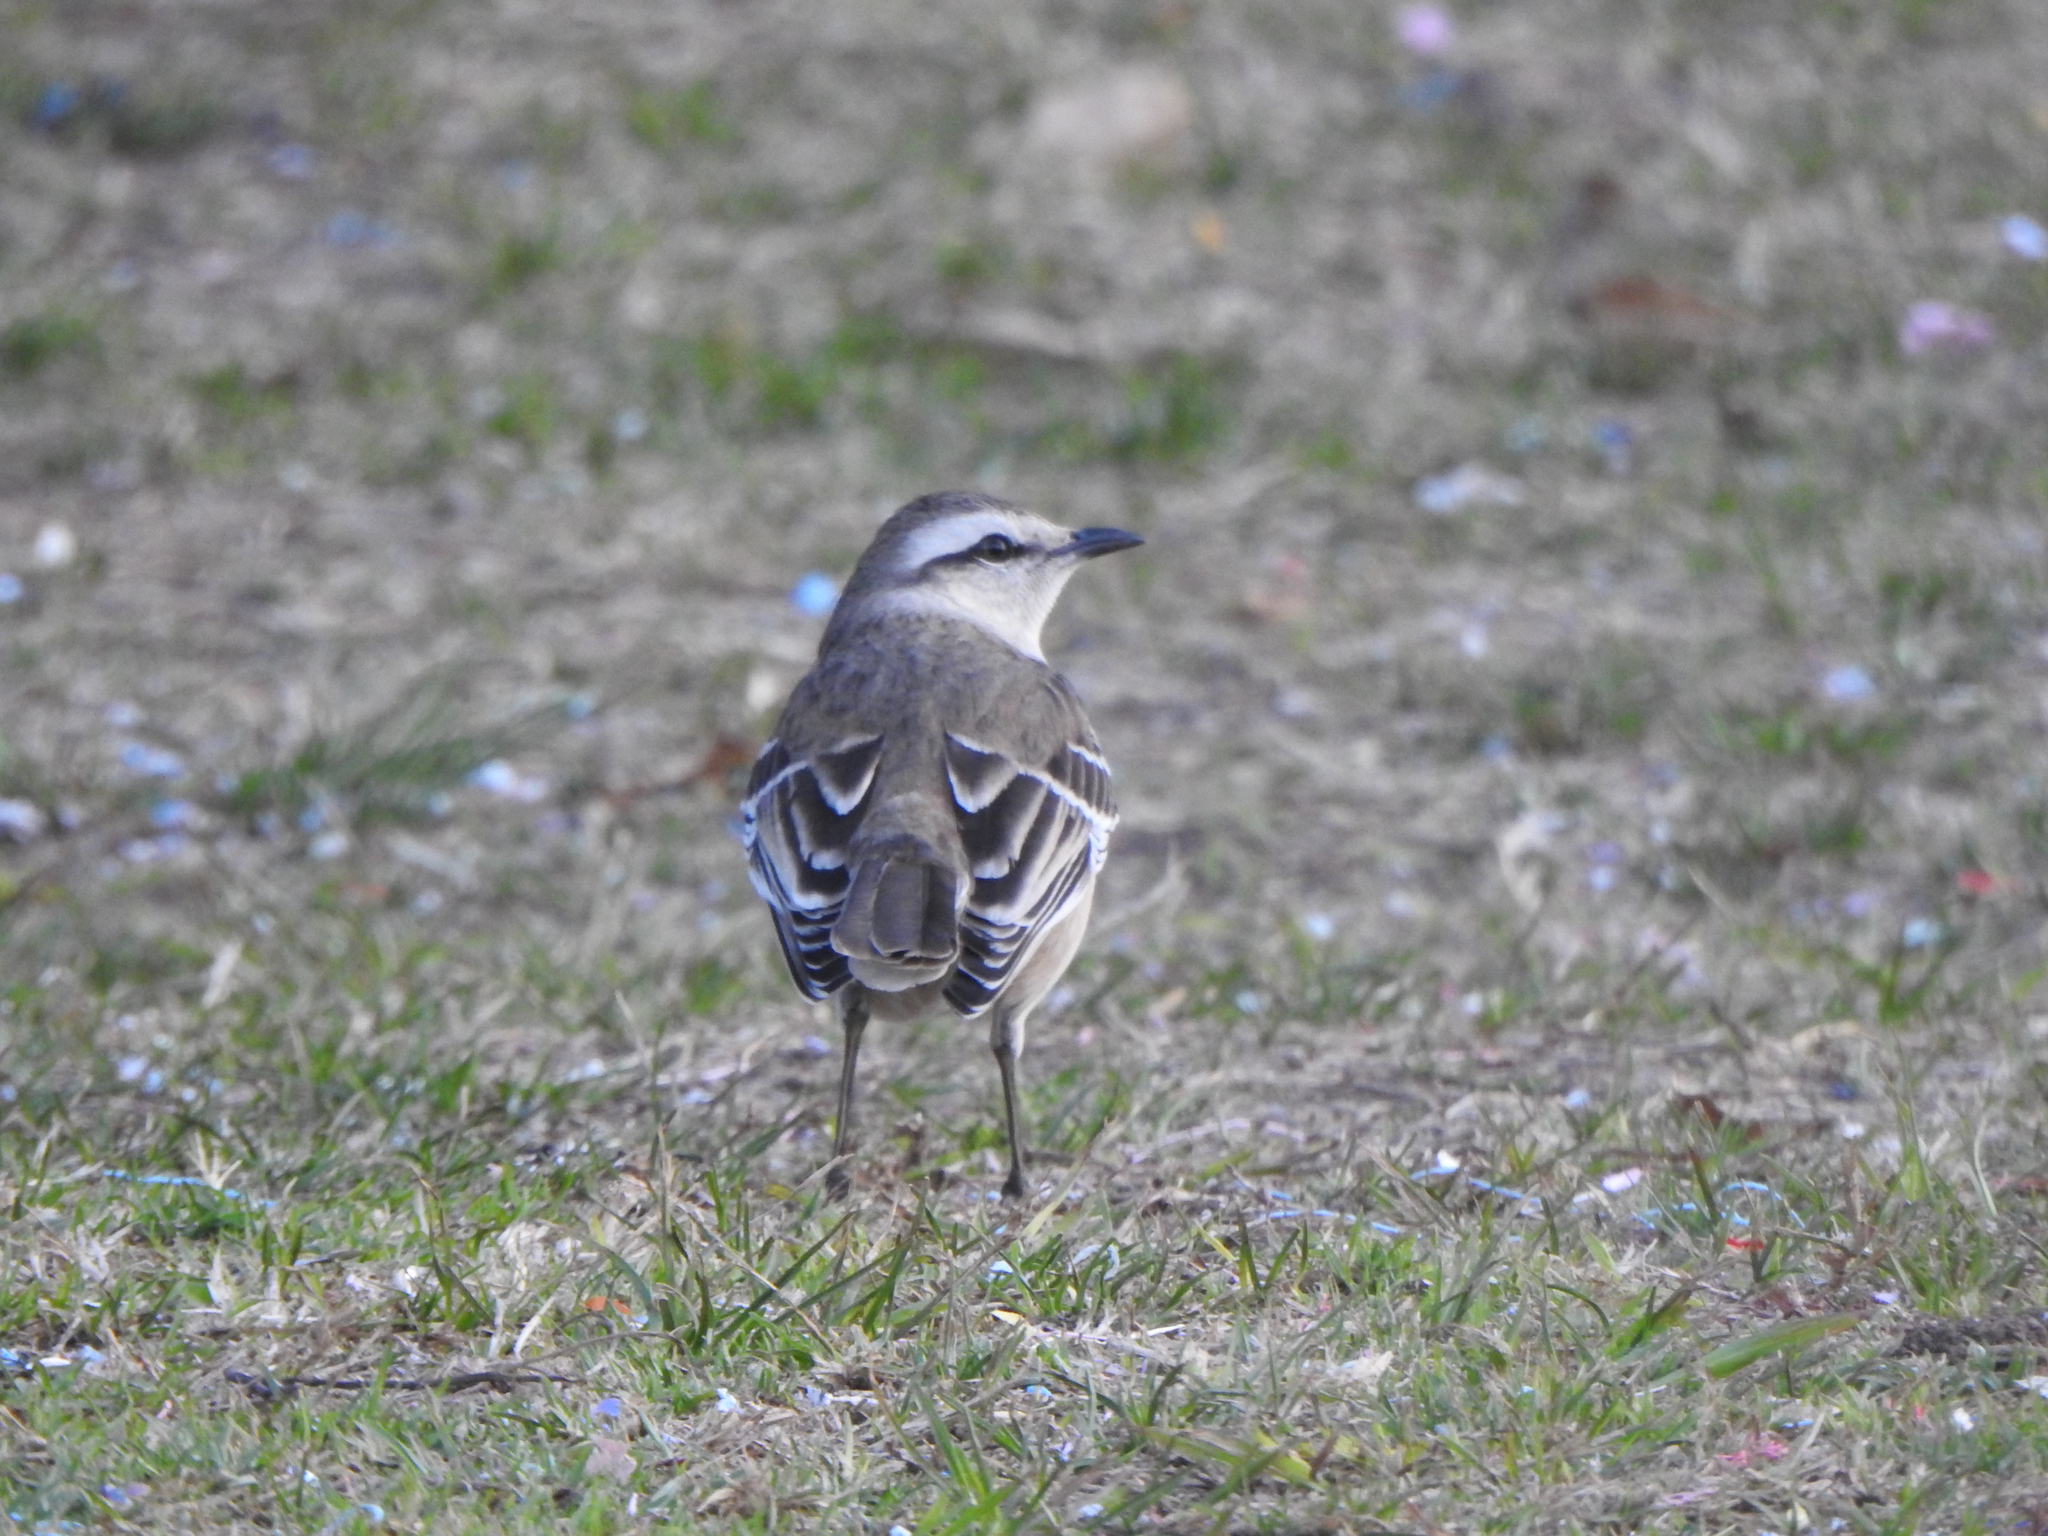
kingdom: Animalia
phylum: Chordata
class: Aves
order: Passeriformes
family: Mimidae
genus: Mimus
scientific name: Mimus saturninus
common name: Chalk-browed mockingbird
